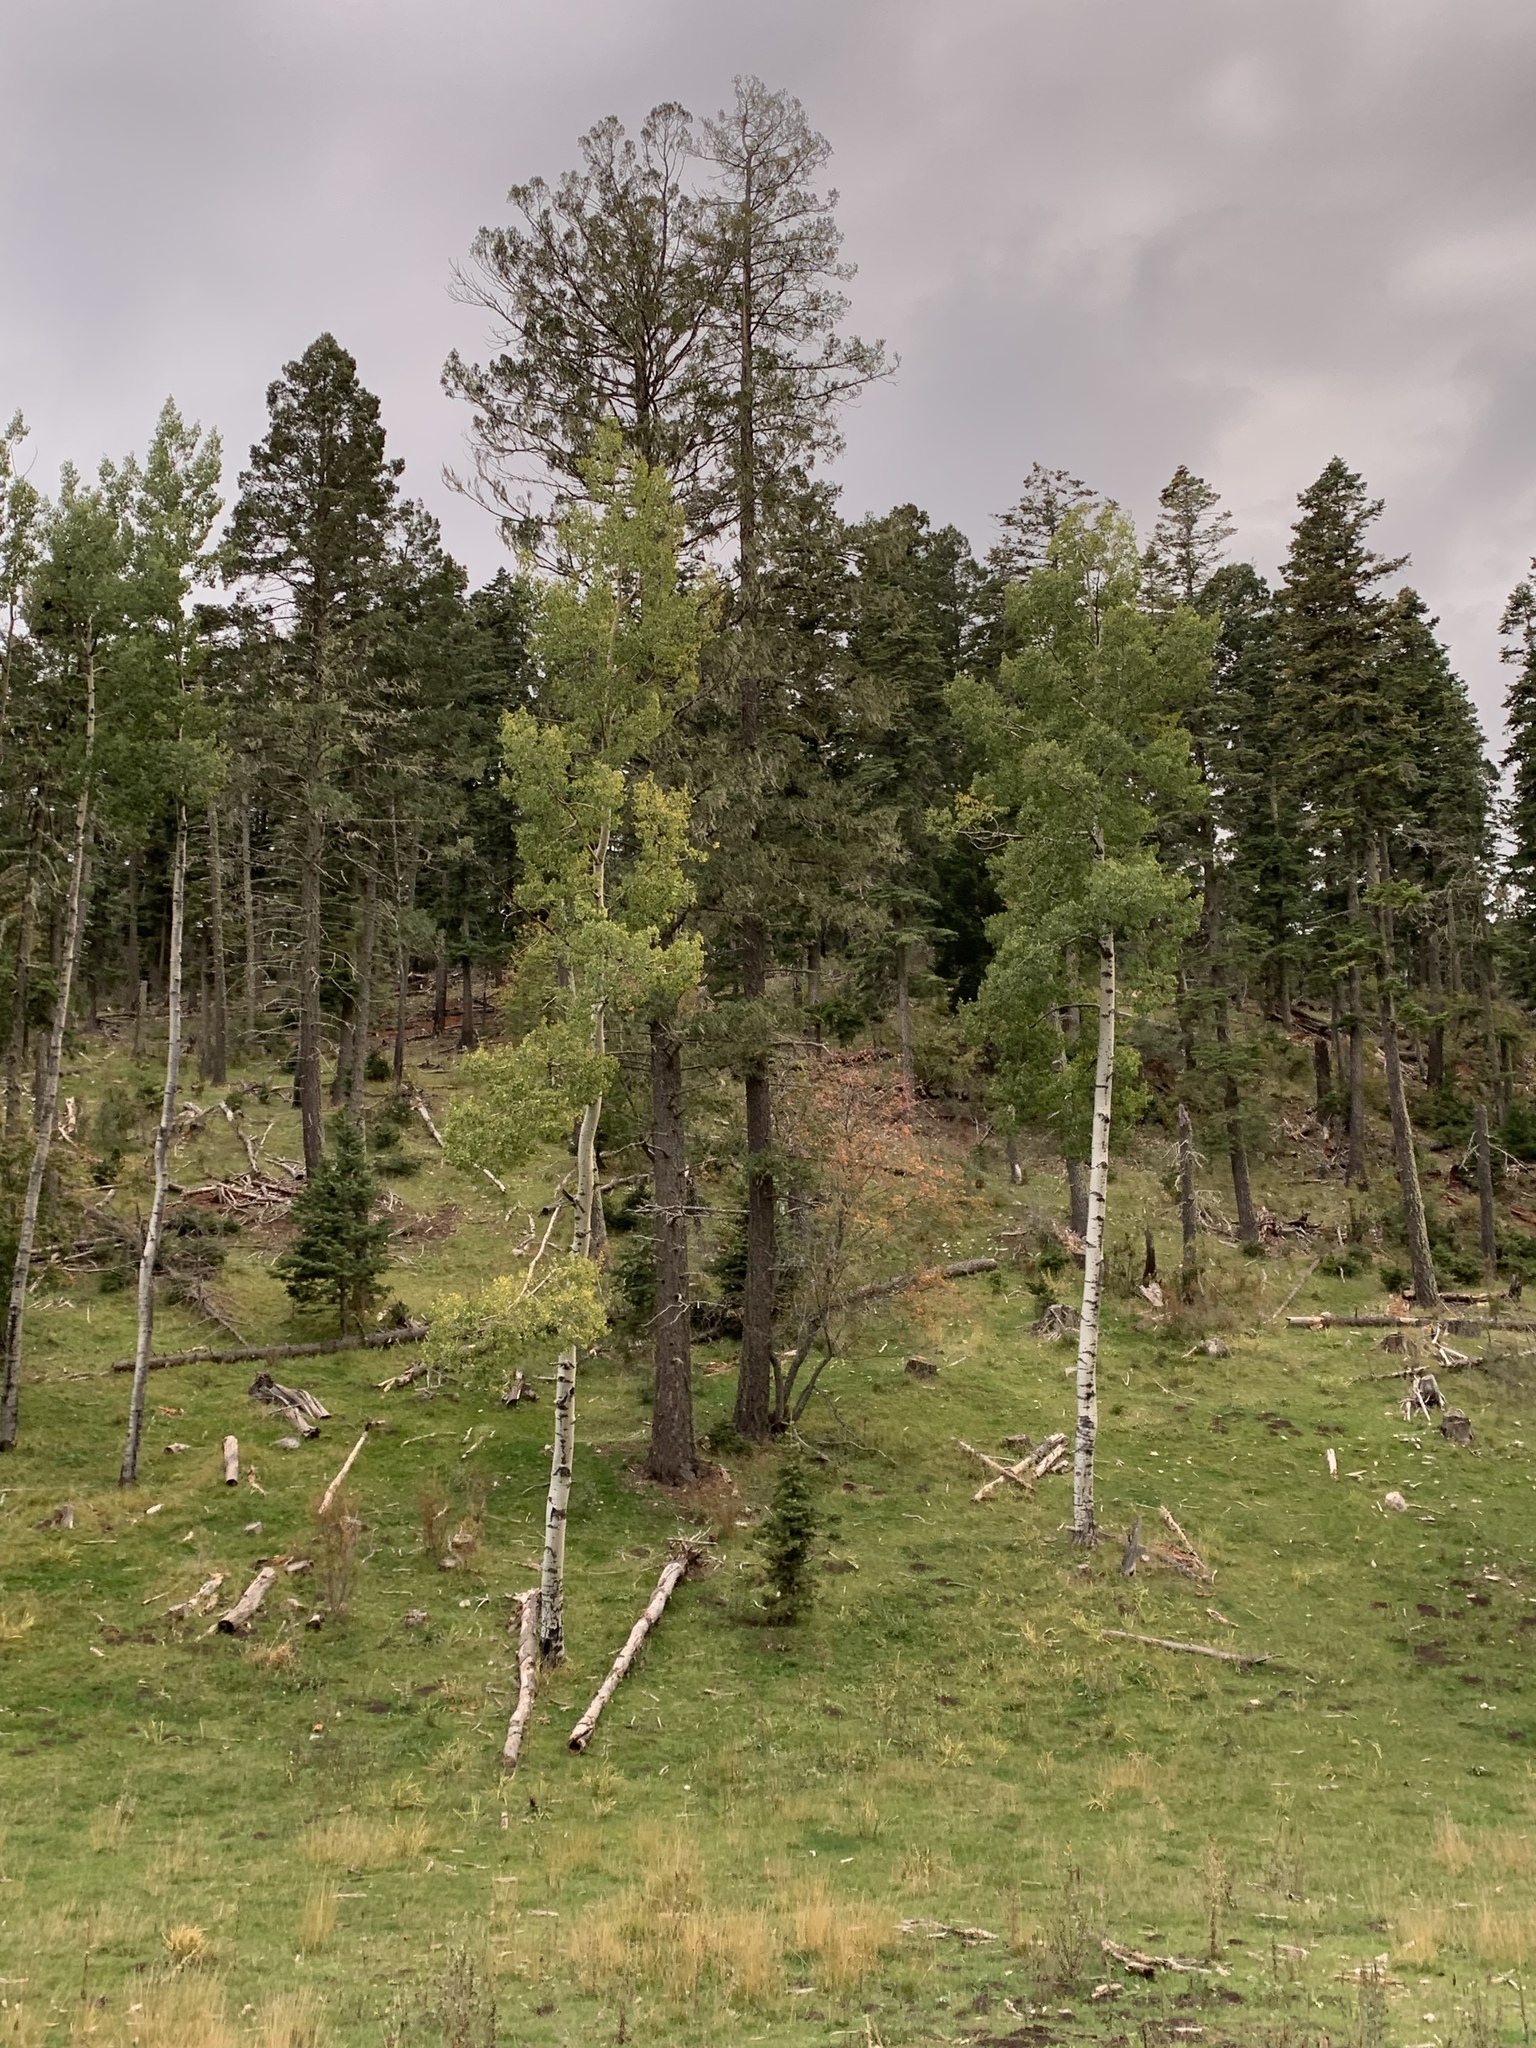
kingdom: Plantae
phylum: Tracheophyta
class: Magnoliopsida
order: Malpighiales
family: Salicaceae
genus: Populus
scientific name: Populus tremuloides
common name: Quaking aspen
